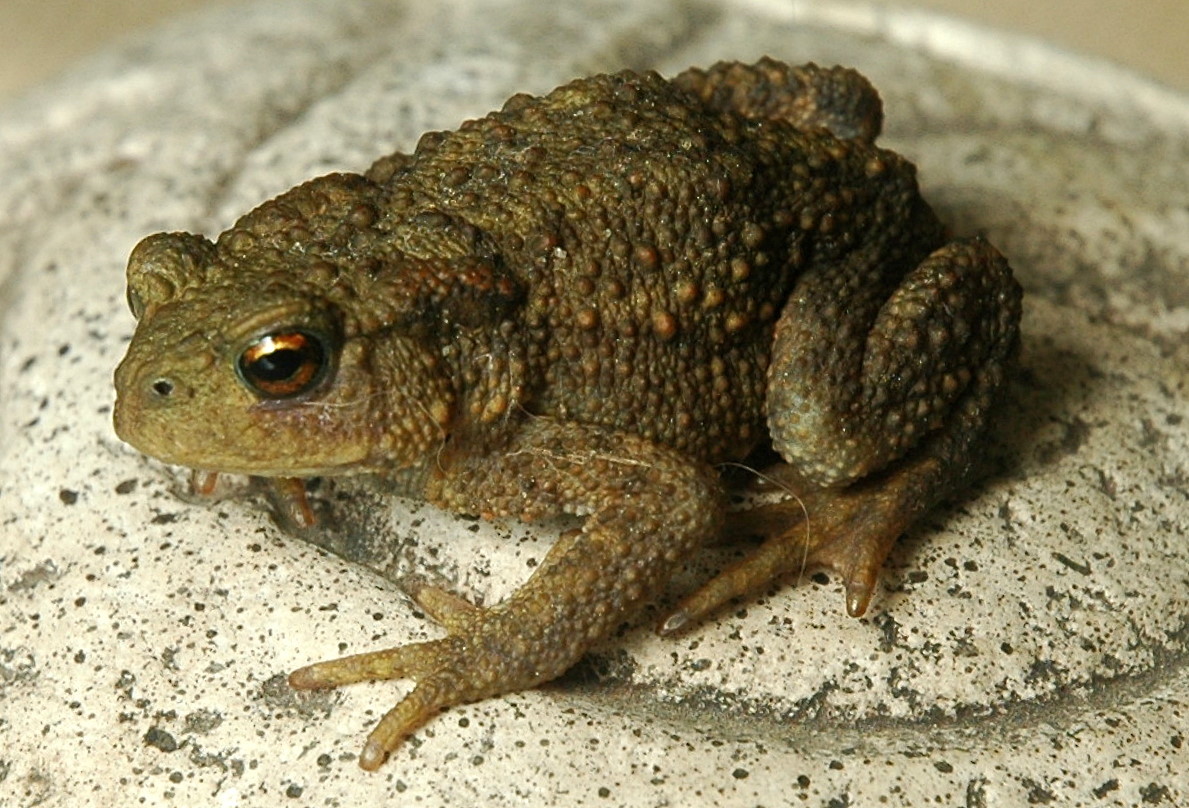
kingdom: Animalia
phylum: Chordata
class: Amphibia
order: Anura
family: Bufonidae
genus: Bufo
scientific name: Bufo bufo
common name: Common toad
